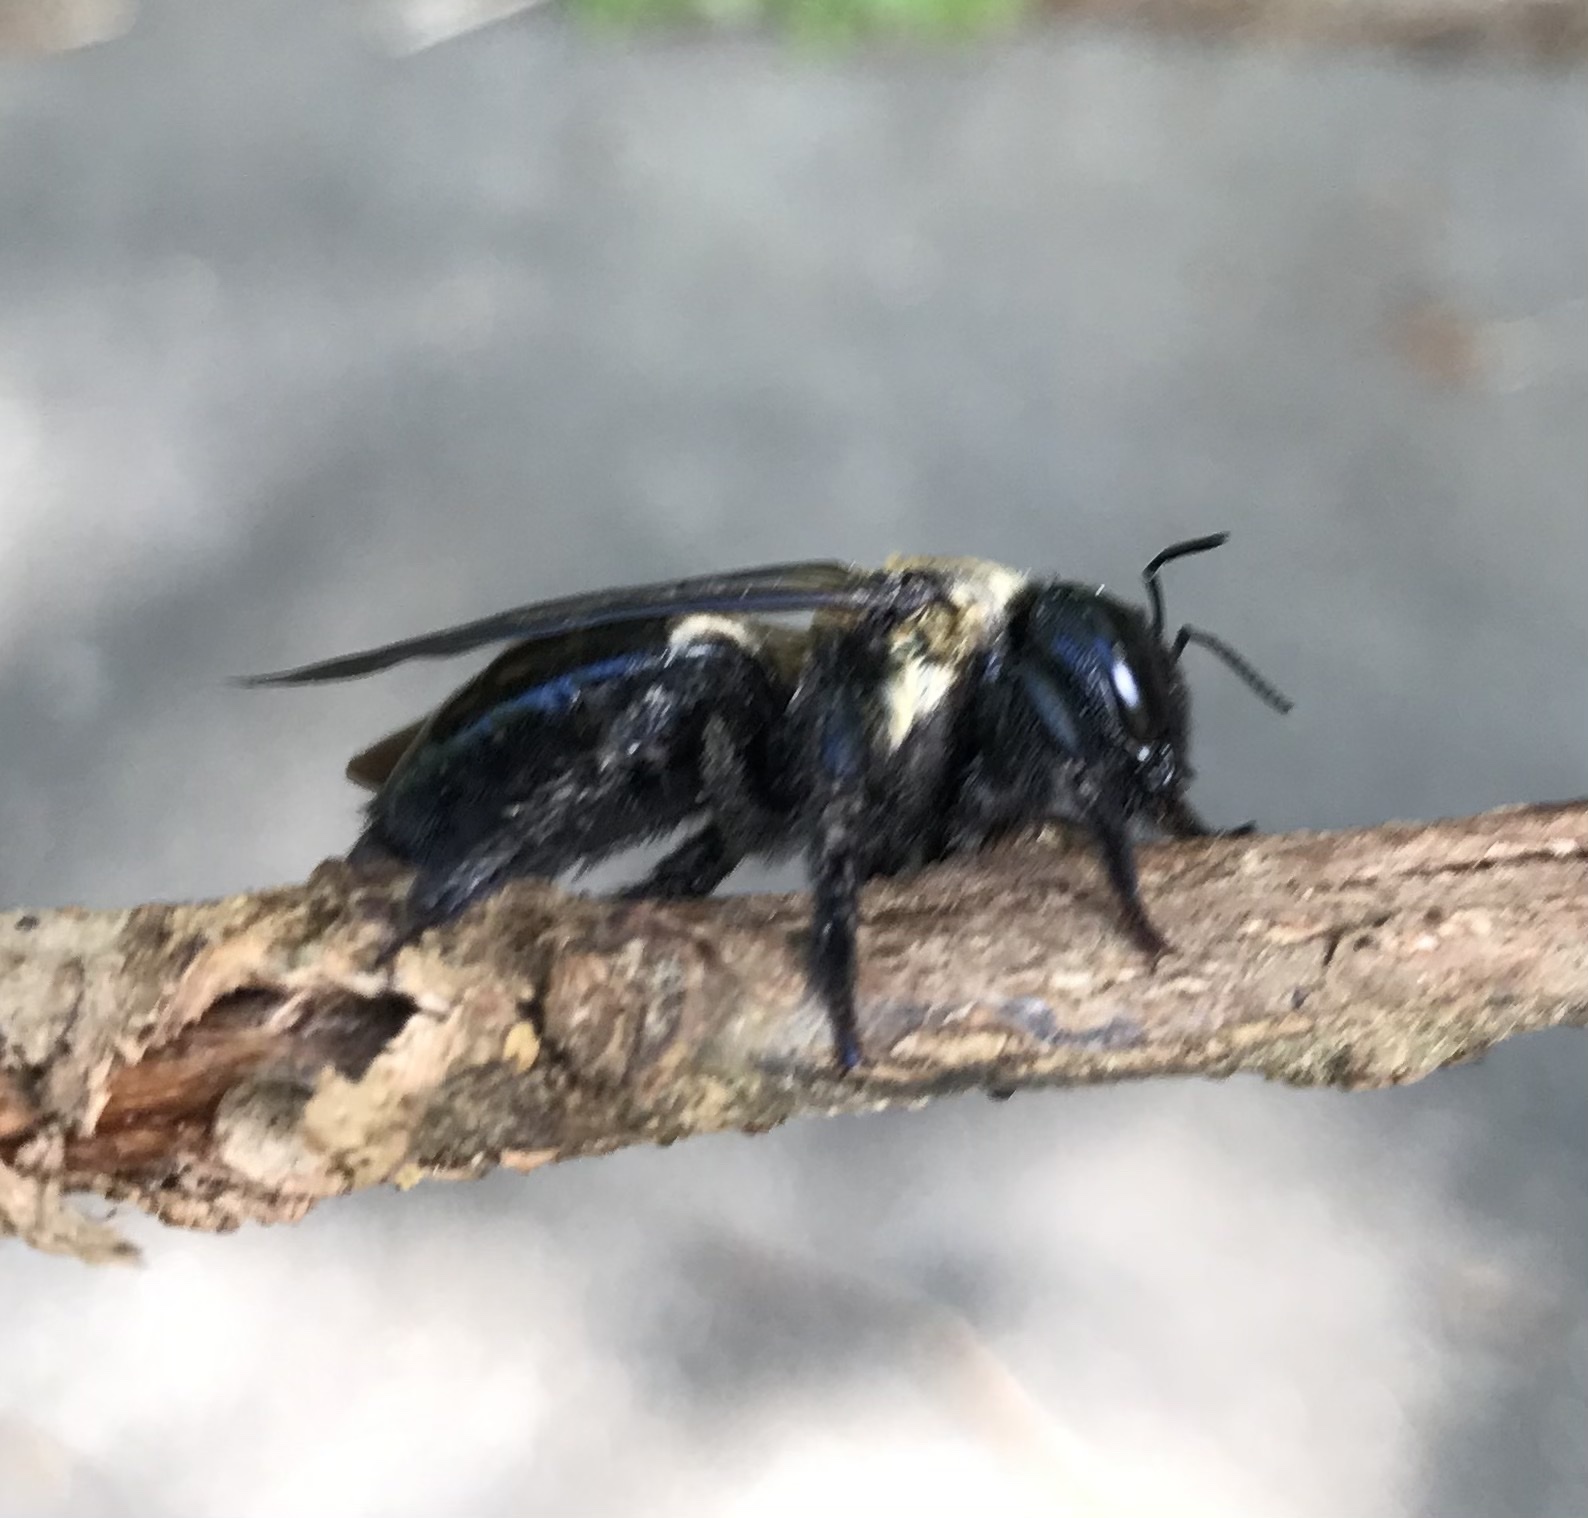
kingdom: Animalia
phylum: Arthropoda
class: Insecta
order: Hymenoptera
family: Apidae
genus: Xylocopa
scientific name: Xylocopa virginica
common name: Carpenter bee
